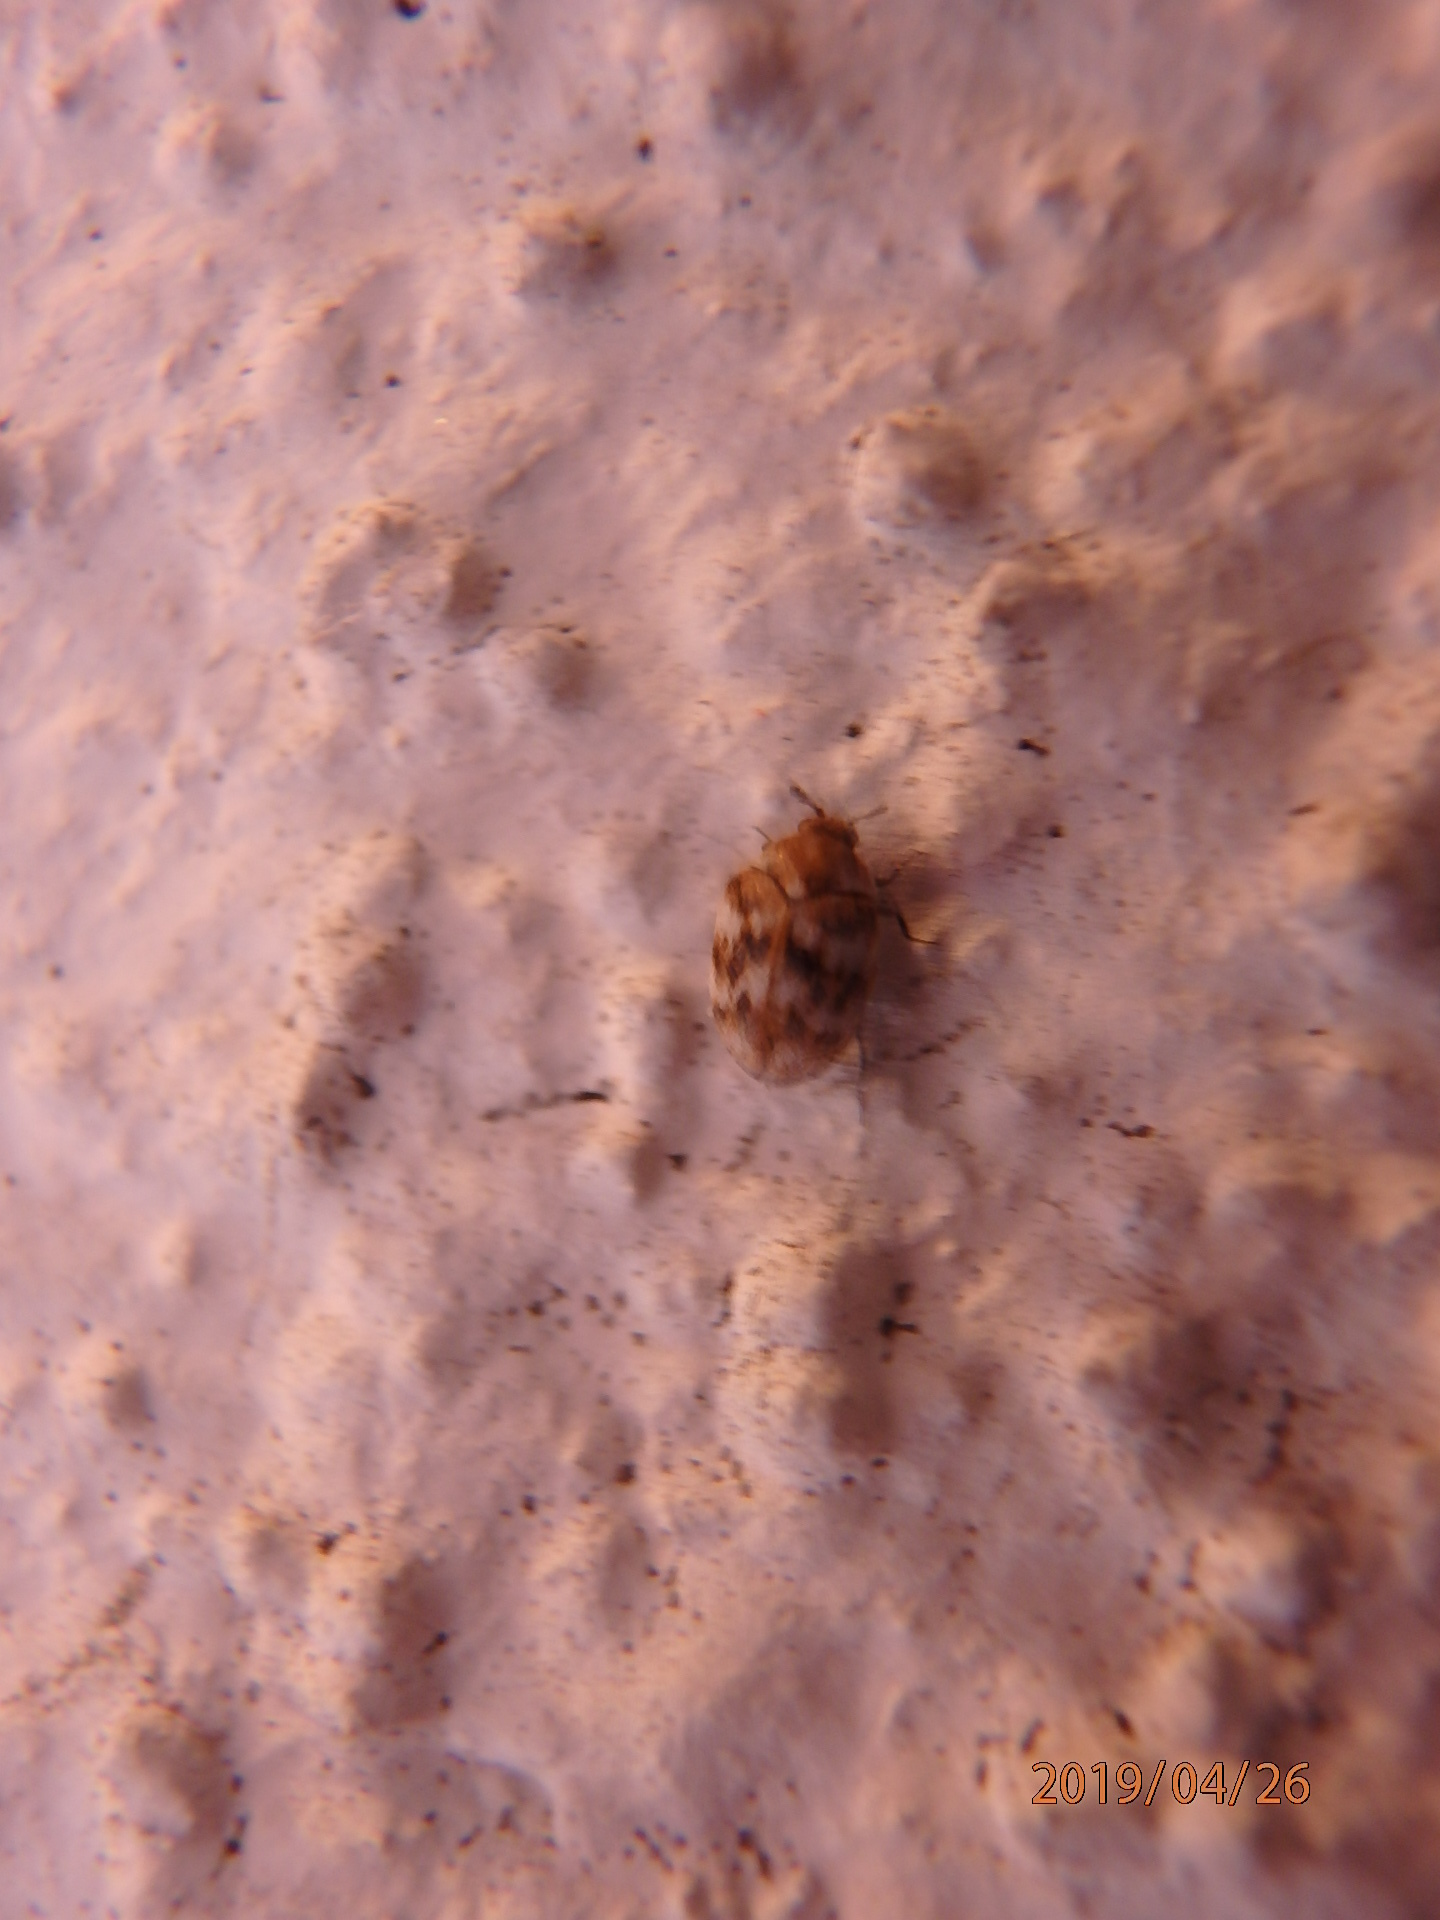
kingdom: Animalia
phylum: Arthropoda
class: Insecta
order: Coleoptera
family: Dermestidae
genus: Anthrenus
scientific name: Anthrenus verbasci
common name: Varied carpet beetle
